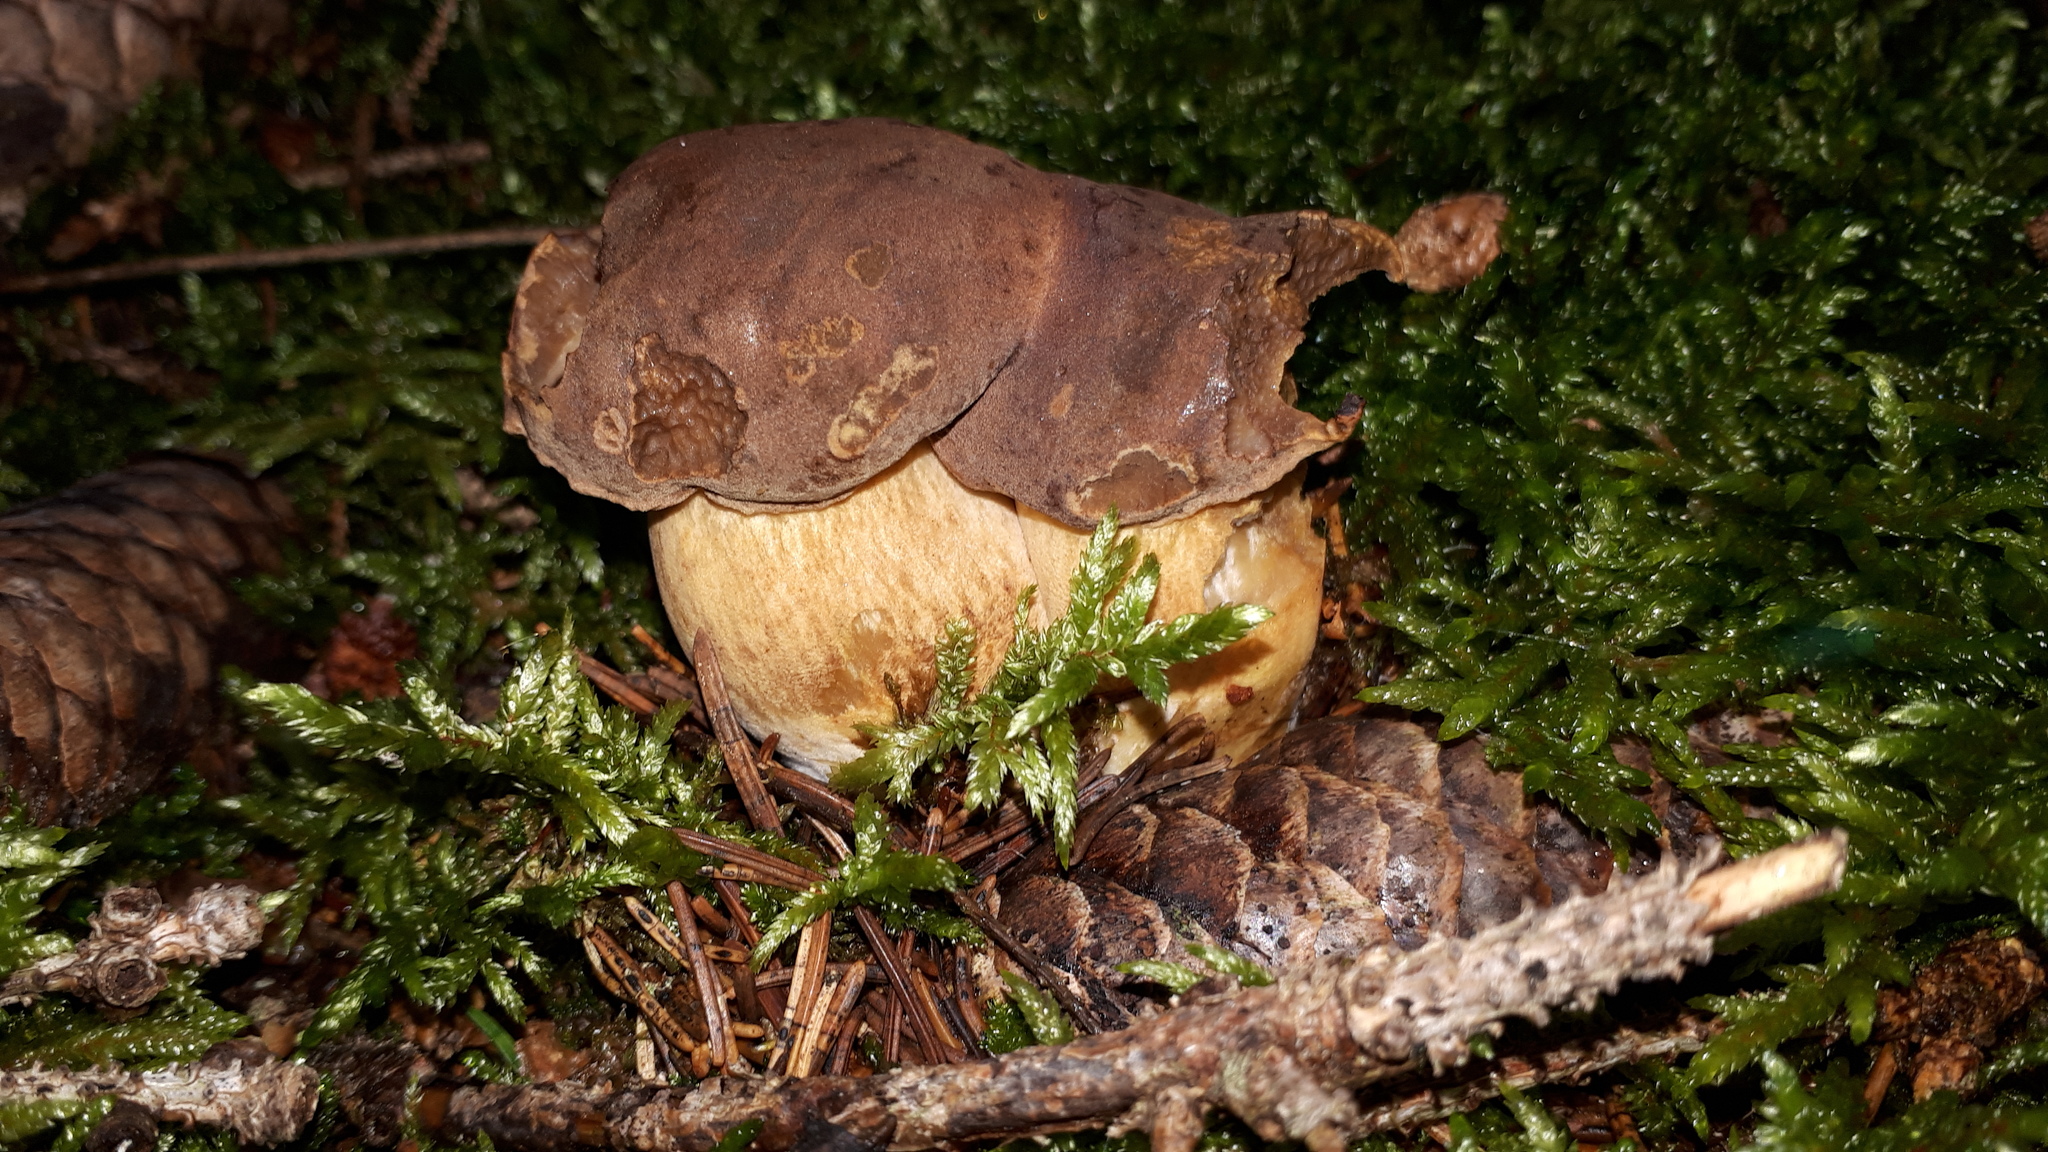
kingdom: Fungi
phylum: Basidiomycota
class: Agaricomycetes
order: Boletales
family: Boletaceae
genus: Imleria
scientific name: Imleria badia
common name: Bay bolete
